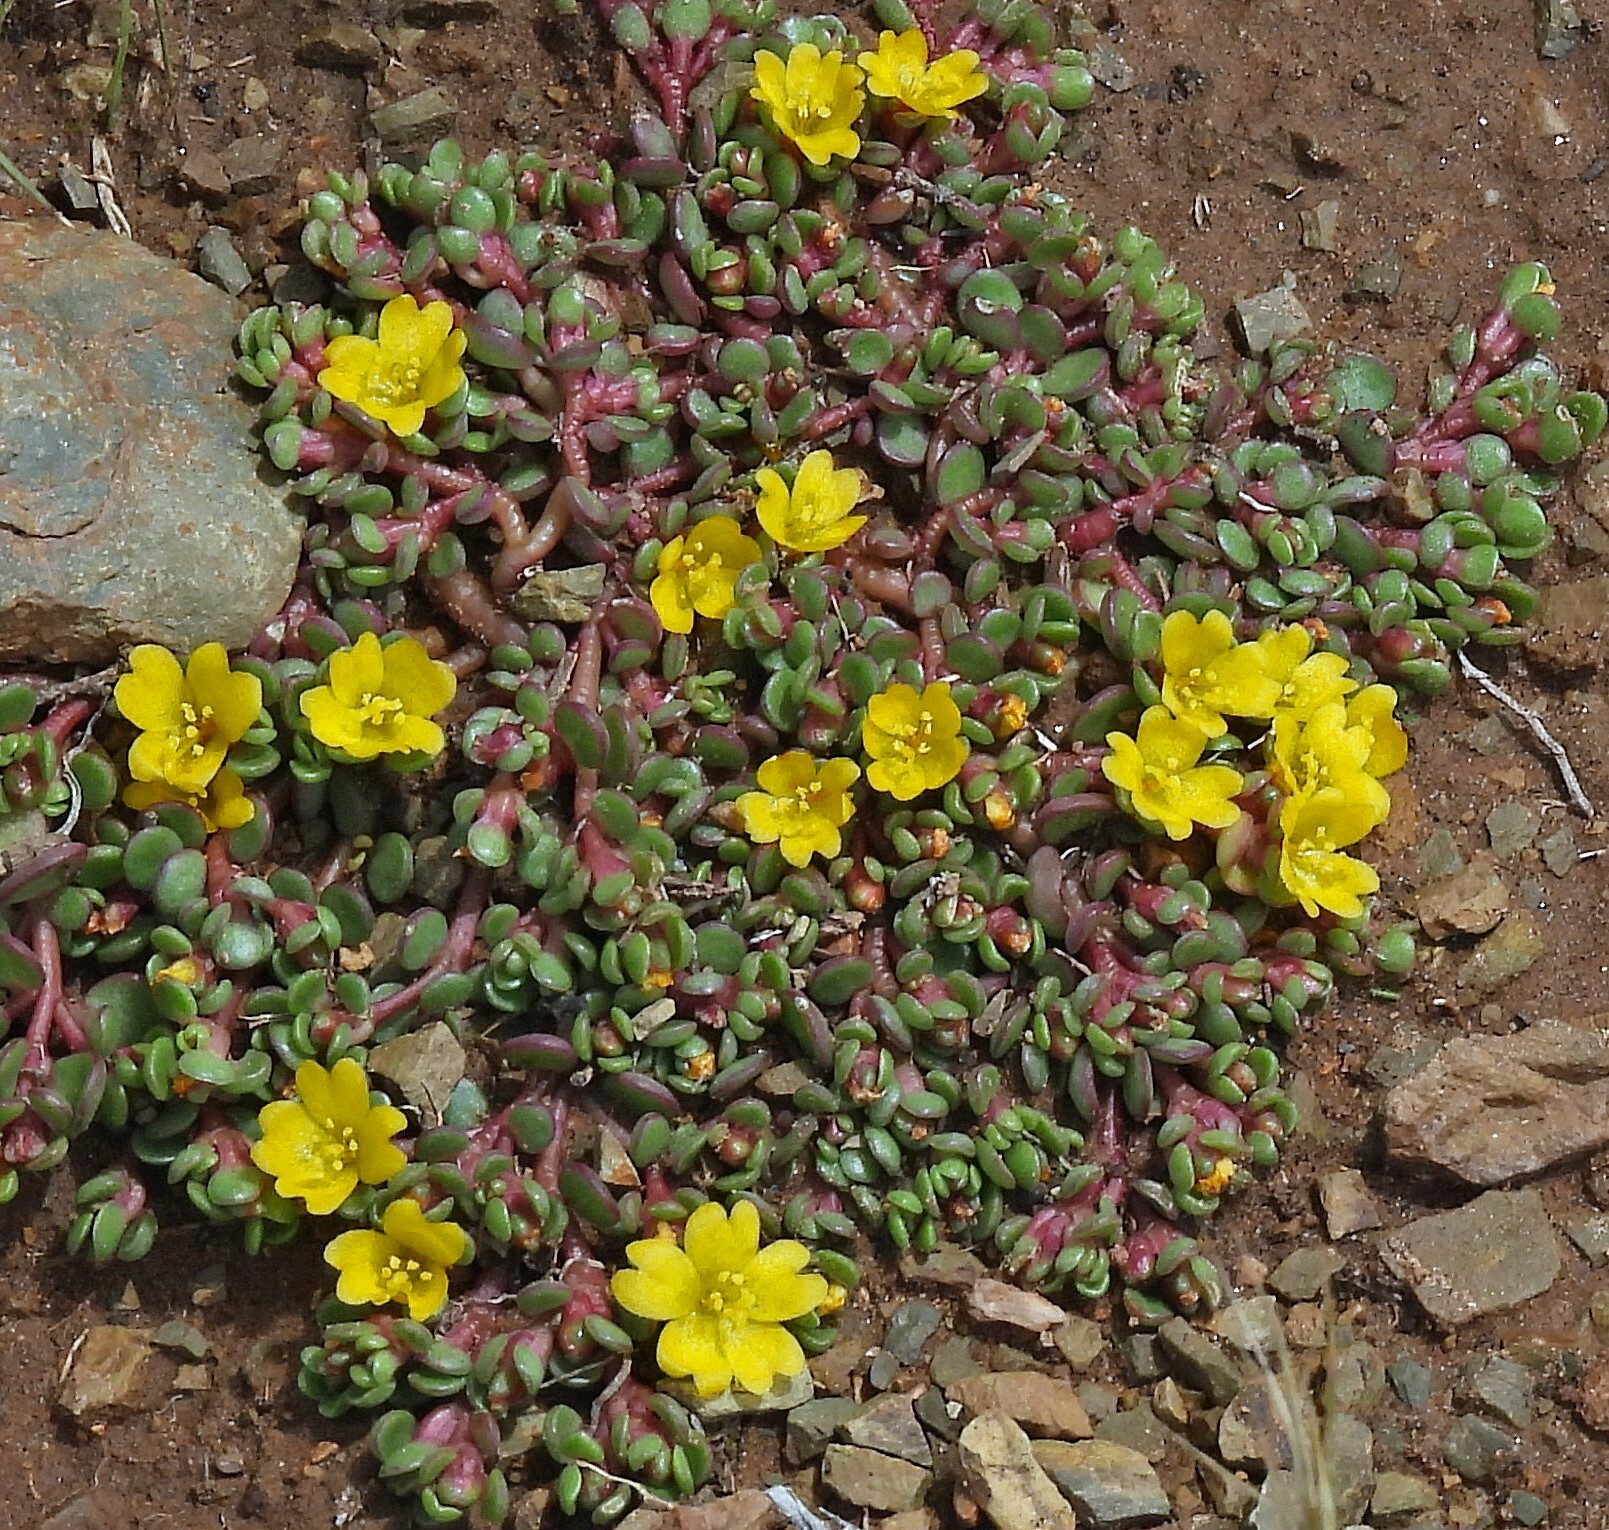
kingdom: Plantae
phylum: Tracheophyta
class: Magnoliopsida
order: Caryophyllales
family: Portulacaceae
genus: Portulaca
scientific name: Portulaca rotundifolia
